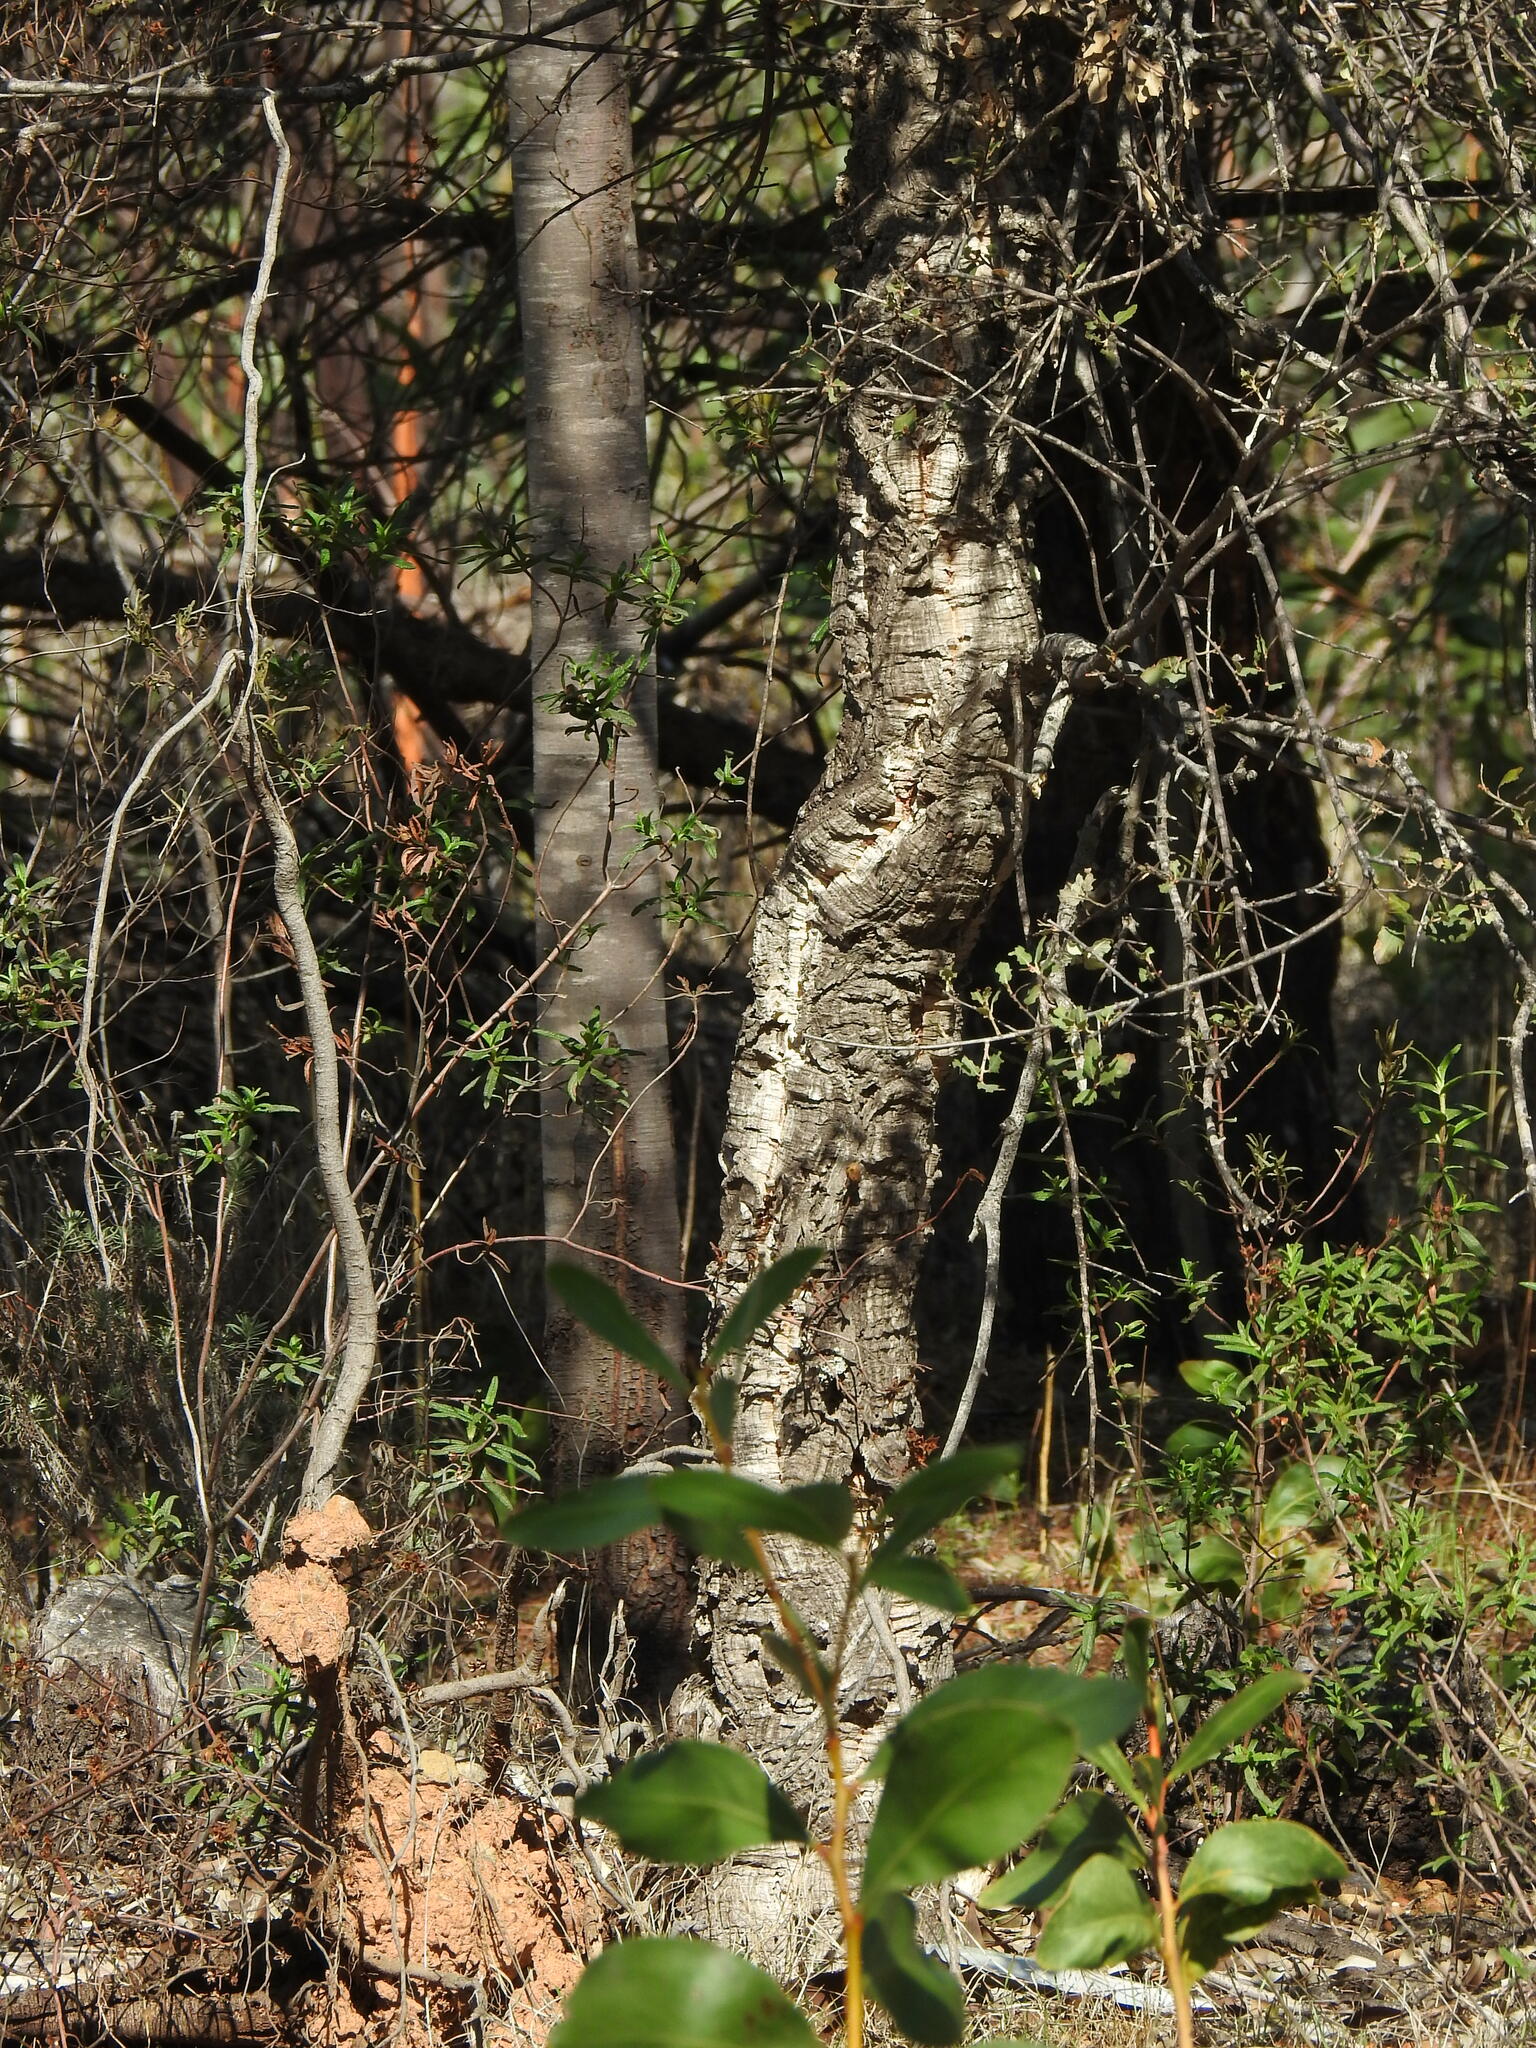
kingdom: Plantae
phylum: Tracheophyta
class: Magnoliopsida
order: Fagales
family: Fagaceae
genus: Quercus
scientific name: Quercus suber
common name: Cork oak
